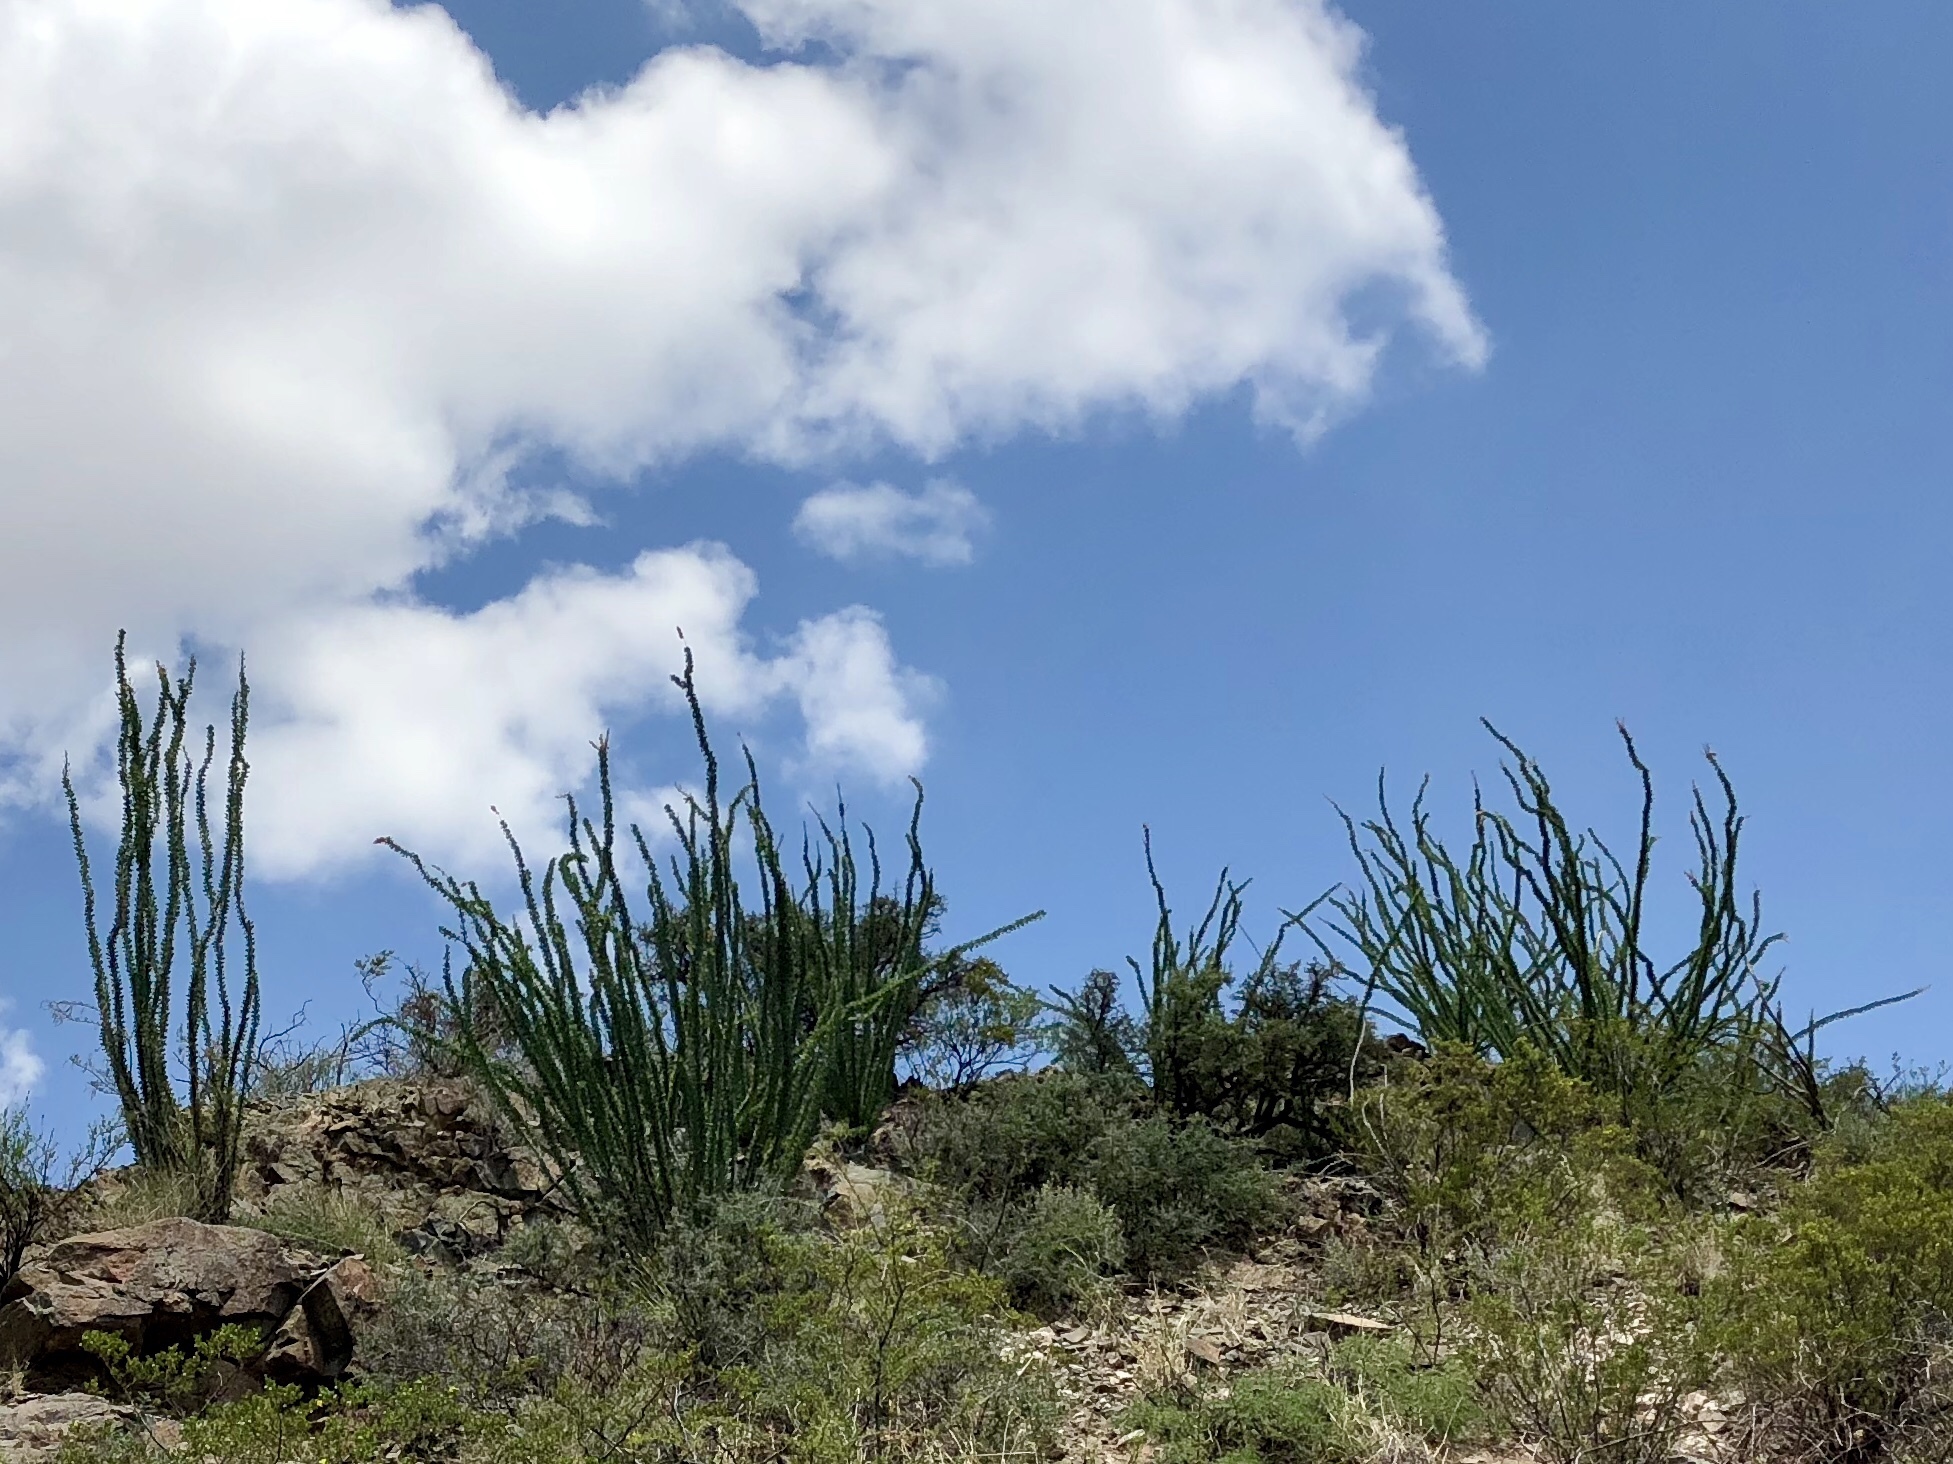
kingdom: Plantae
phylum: Tracheophyta
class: Magnoliopsida
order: Ericales
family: Fouquieriaceae
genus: Fouquieria
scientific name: Fouquieria splendens
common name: Vine-cactus
